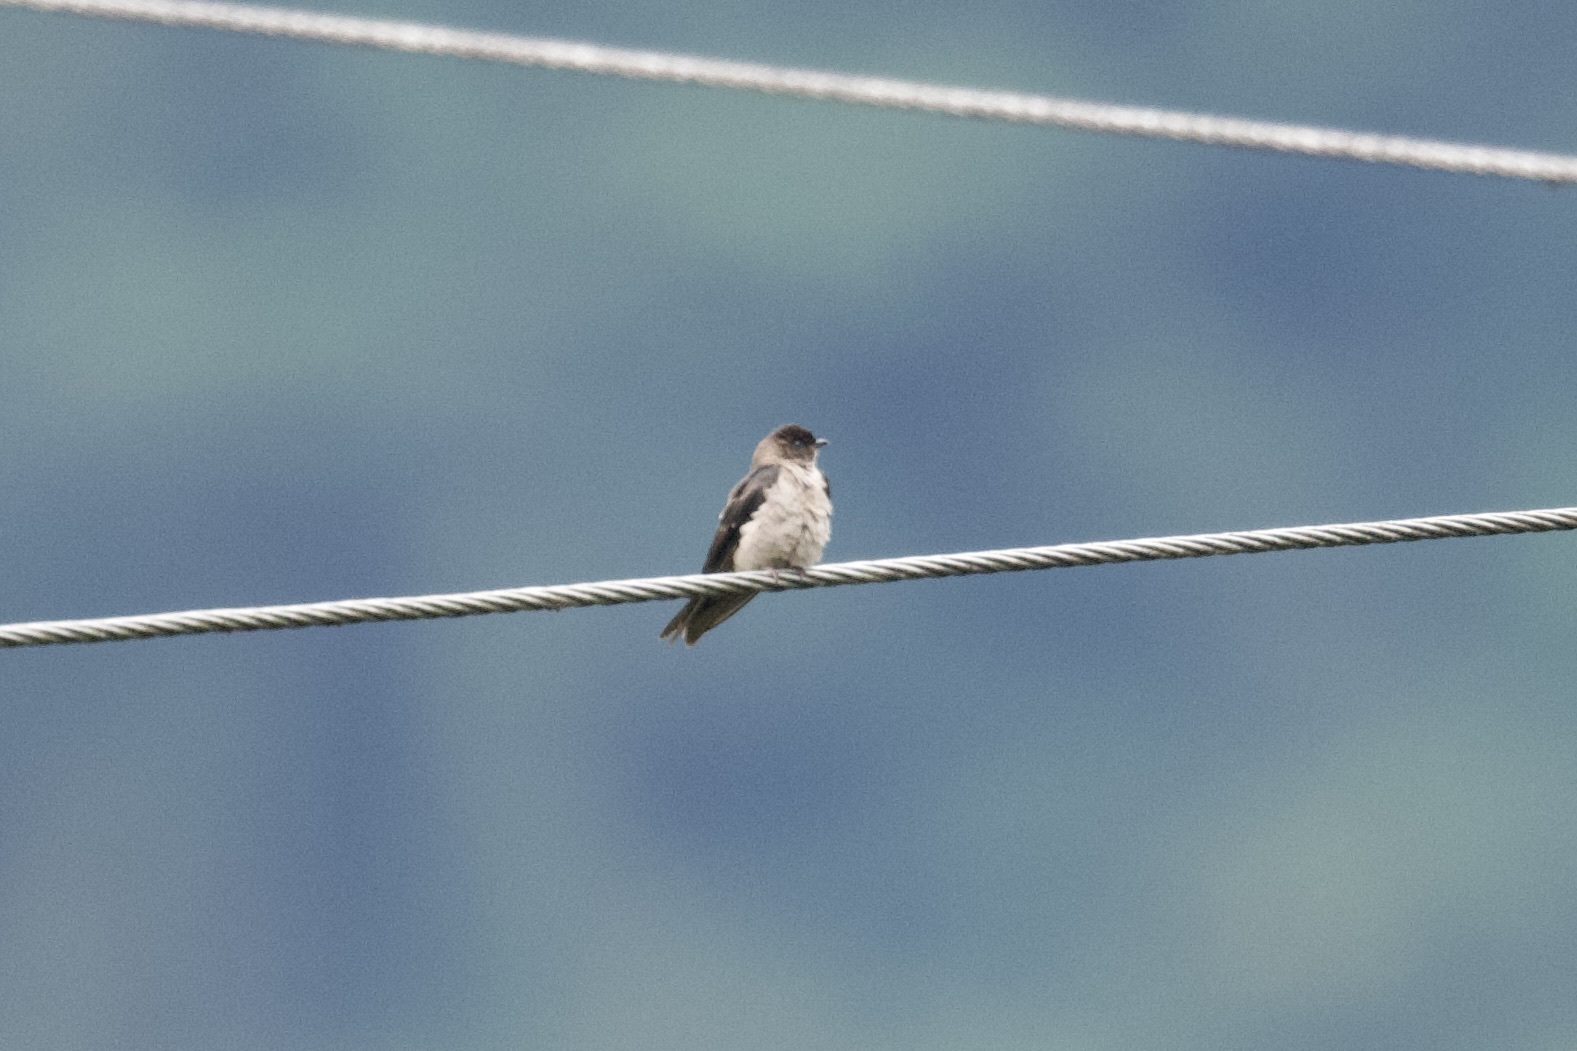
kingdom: Animalia
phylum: Chordata
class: Aves
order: Passeriformes
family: Hirundinidae
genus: Neochelidon
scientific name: Neochelidon tibialis
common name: White-thighed swallow
